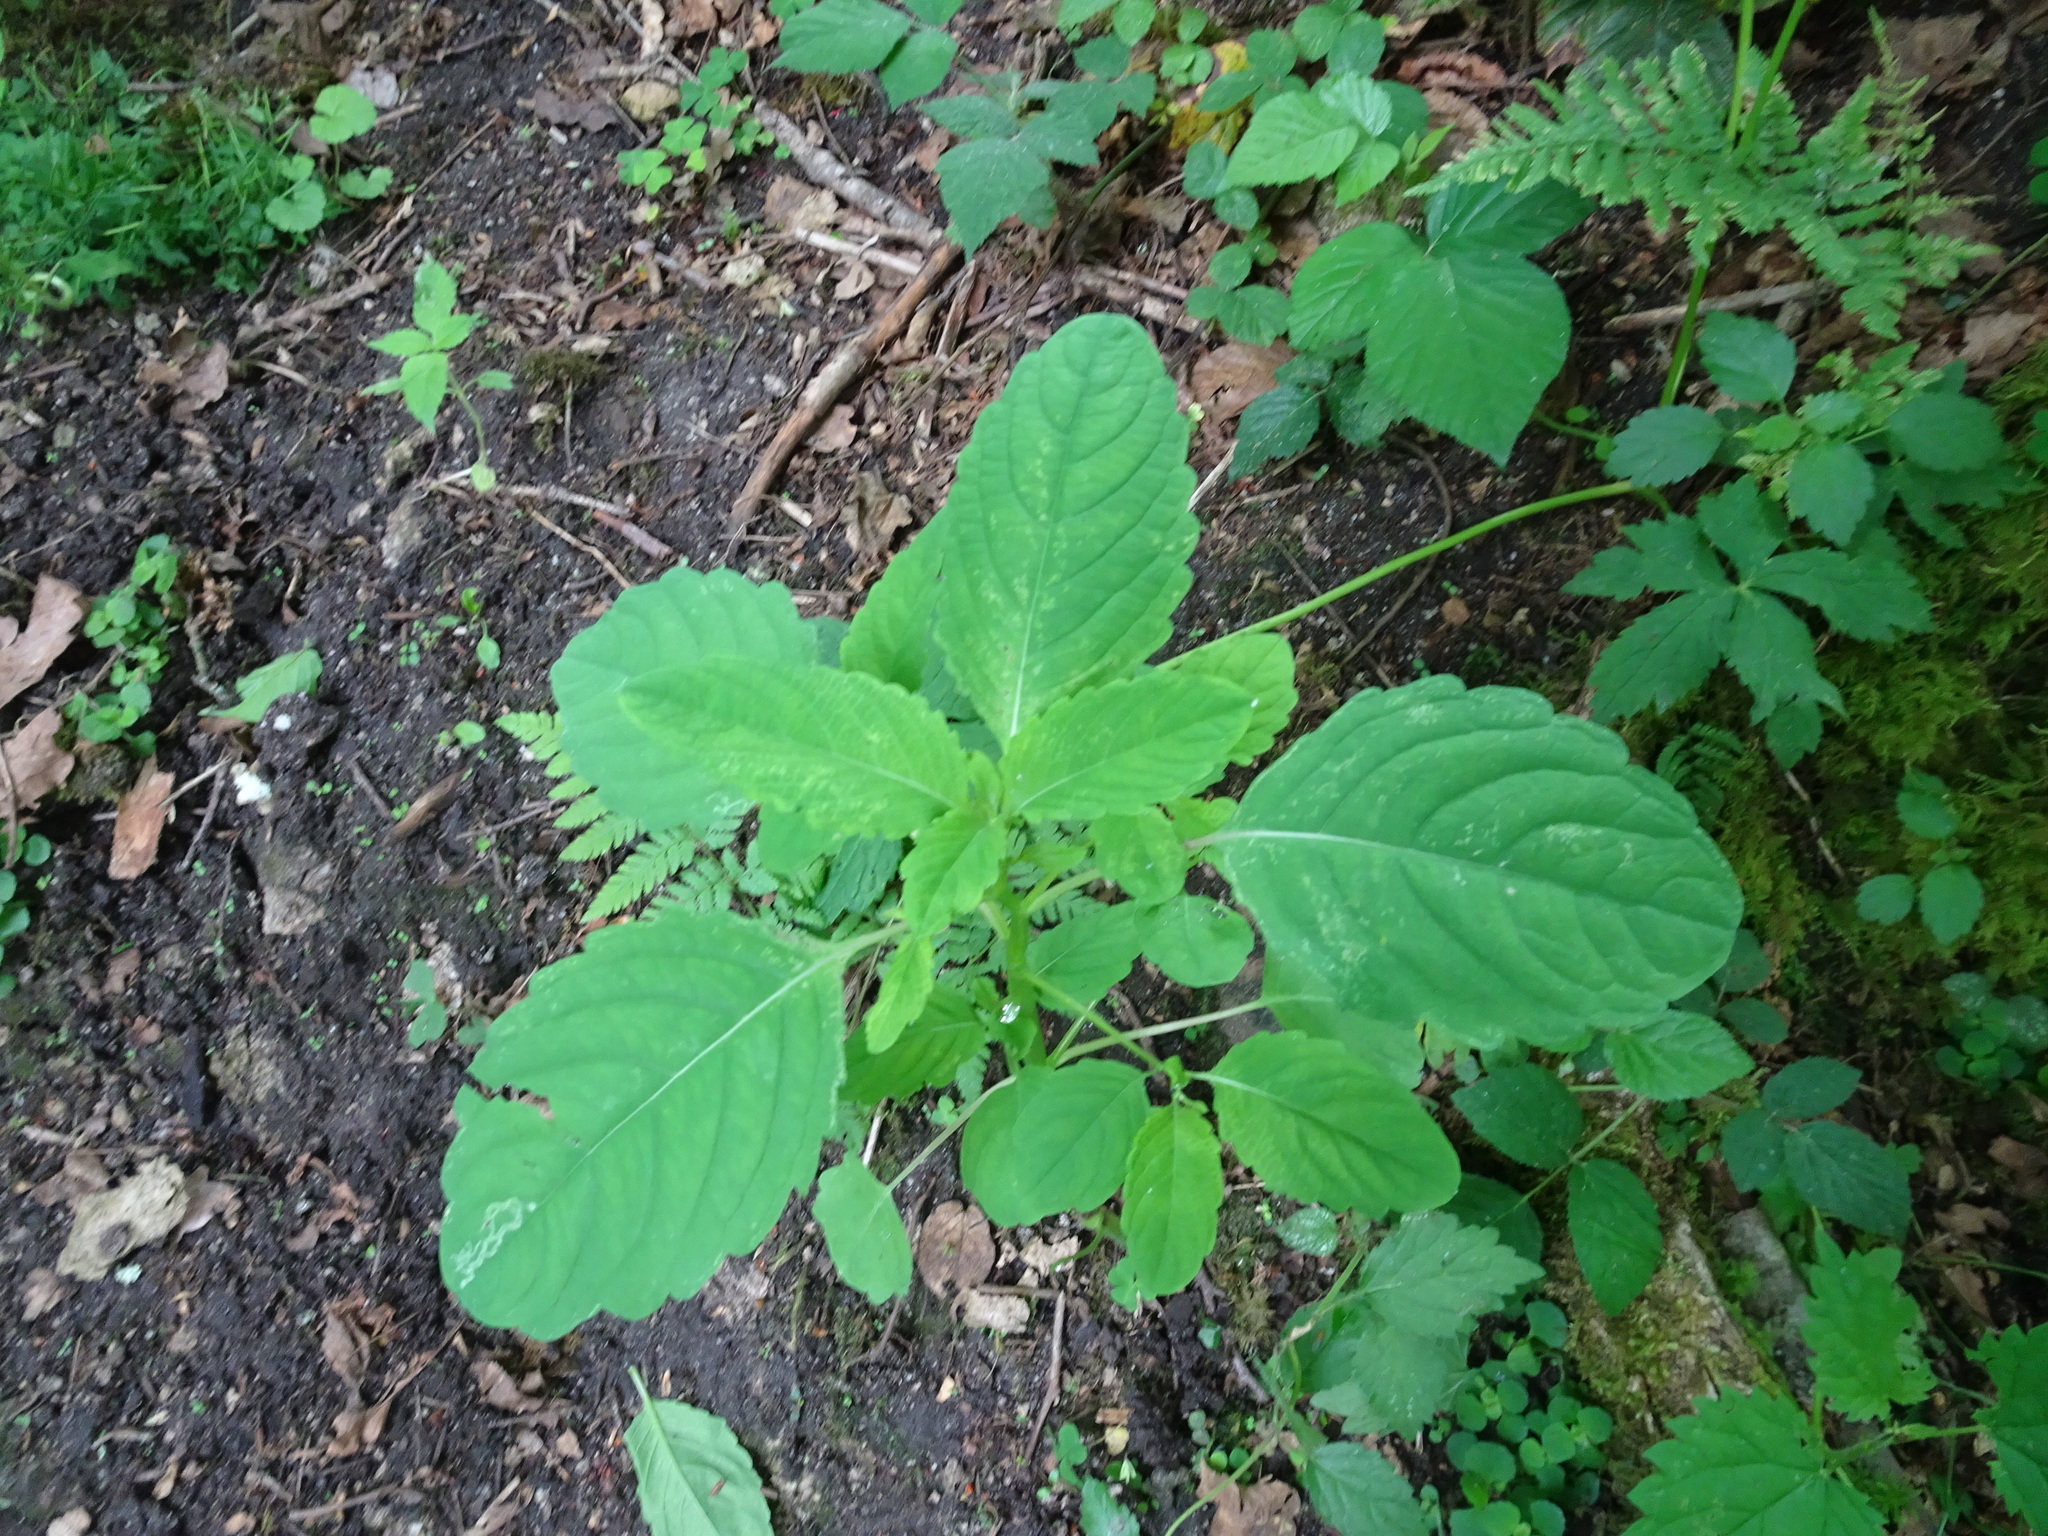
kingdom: Plantae
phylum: Tracheophyta
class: Magnoliopsida
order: Ericales
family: Balsaminaceae
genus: Impatiens
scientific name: Impatiens noli-tangere
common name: Touch-me-not balsam
